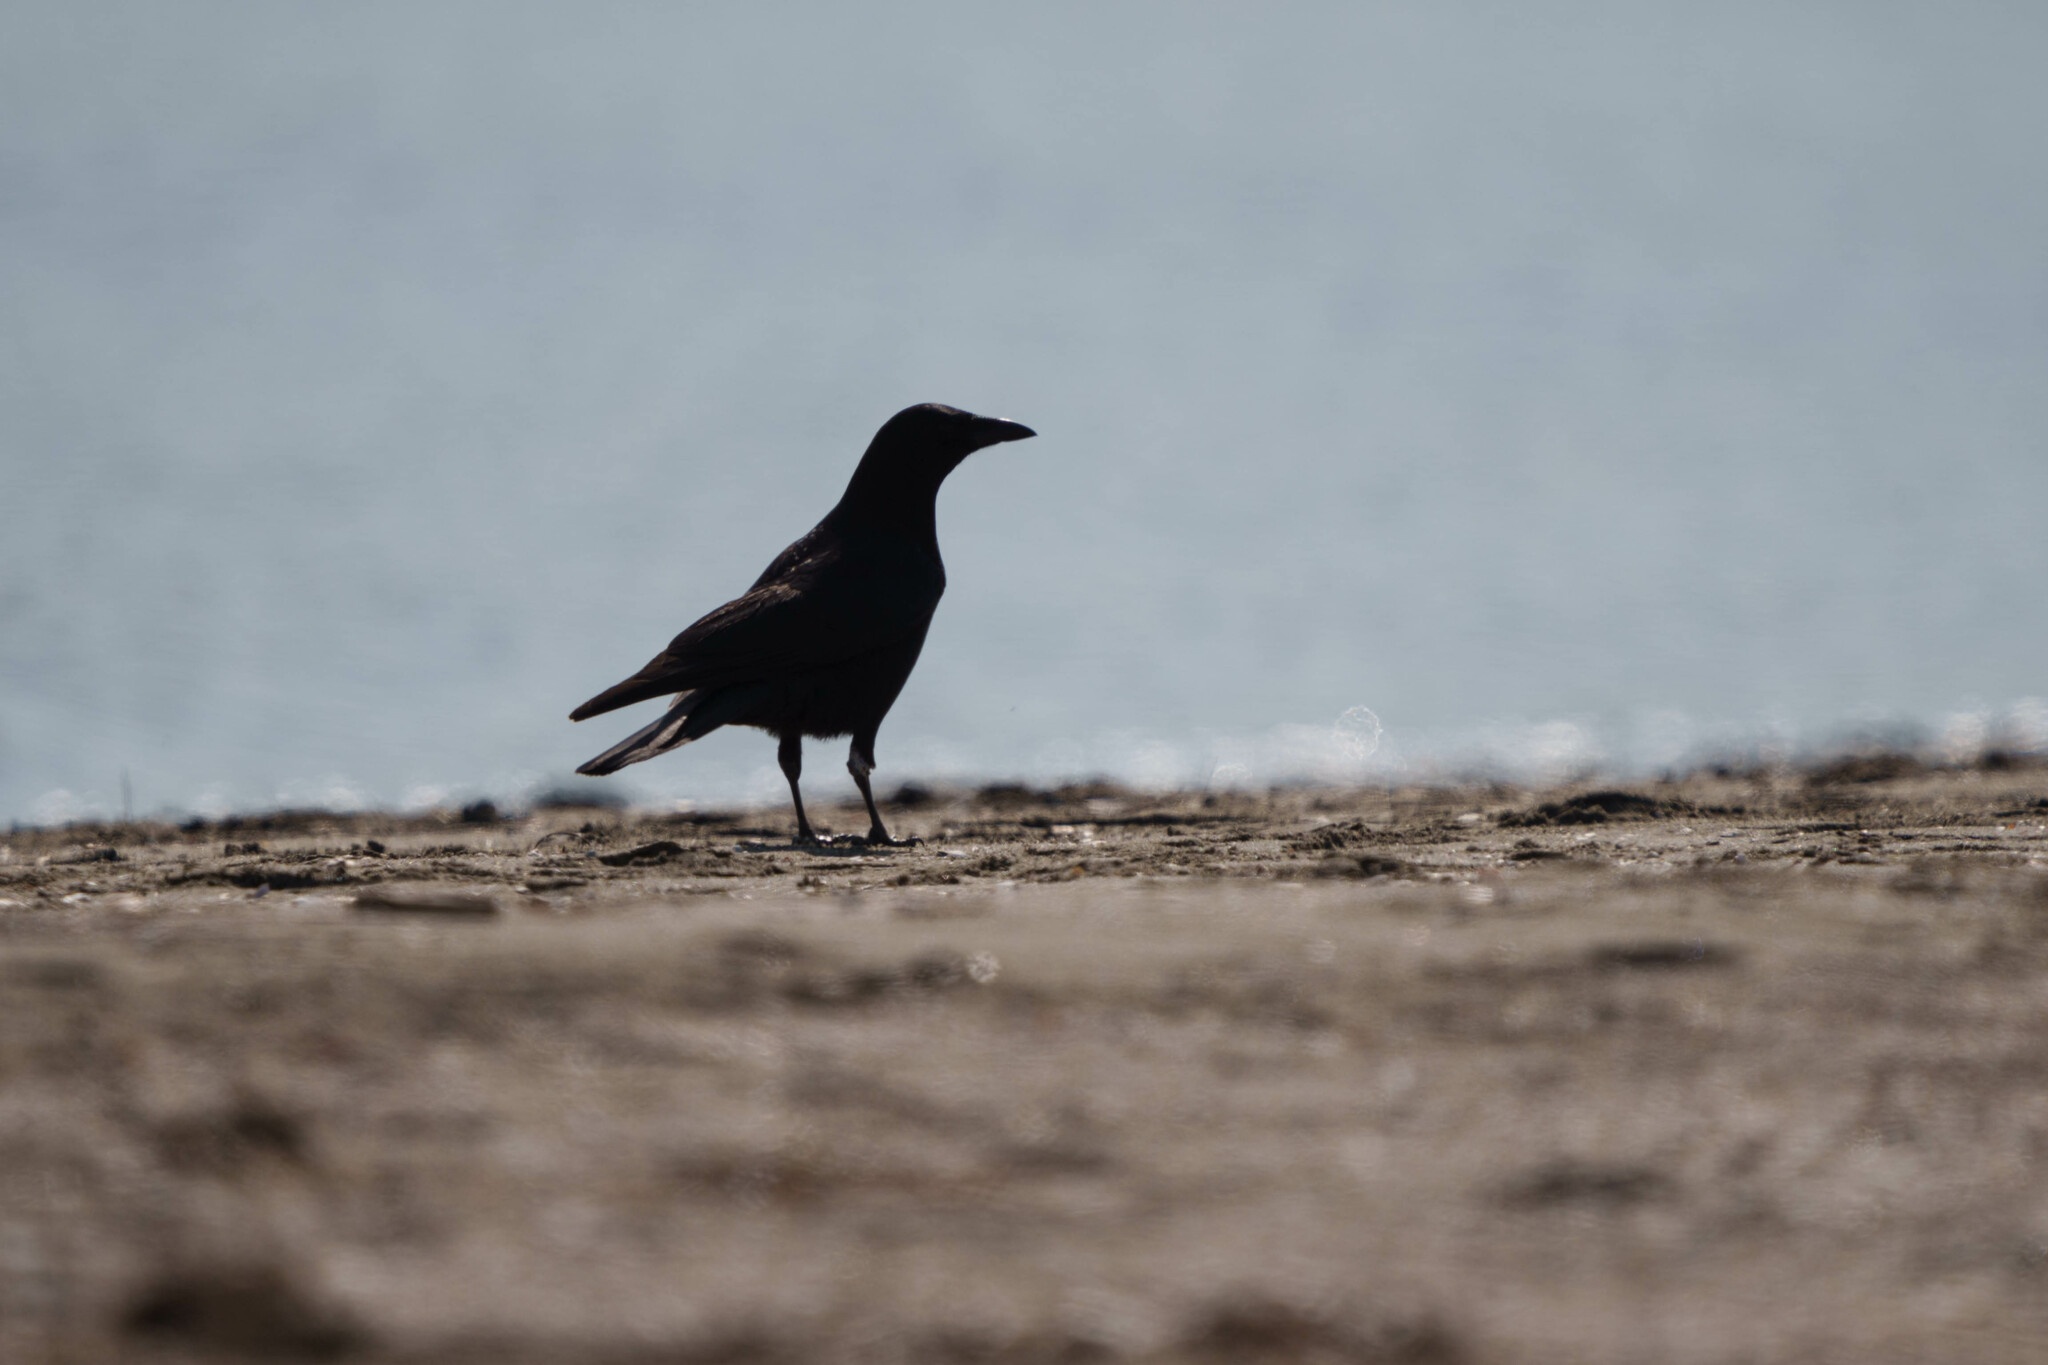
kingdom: Animalia
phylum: Chordata
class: Aves
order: Passeriformes
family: Corvidae
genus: Corvus
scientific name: Corvus brachyrhynchos
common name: American crow
